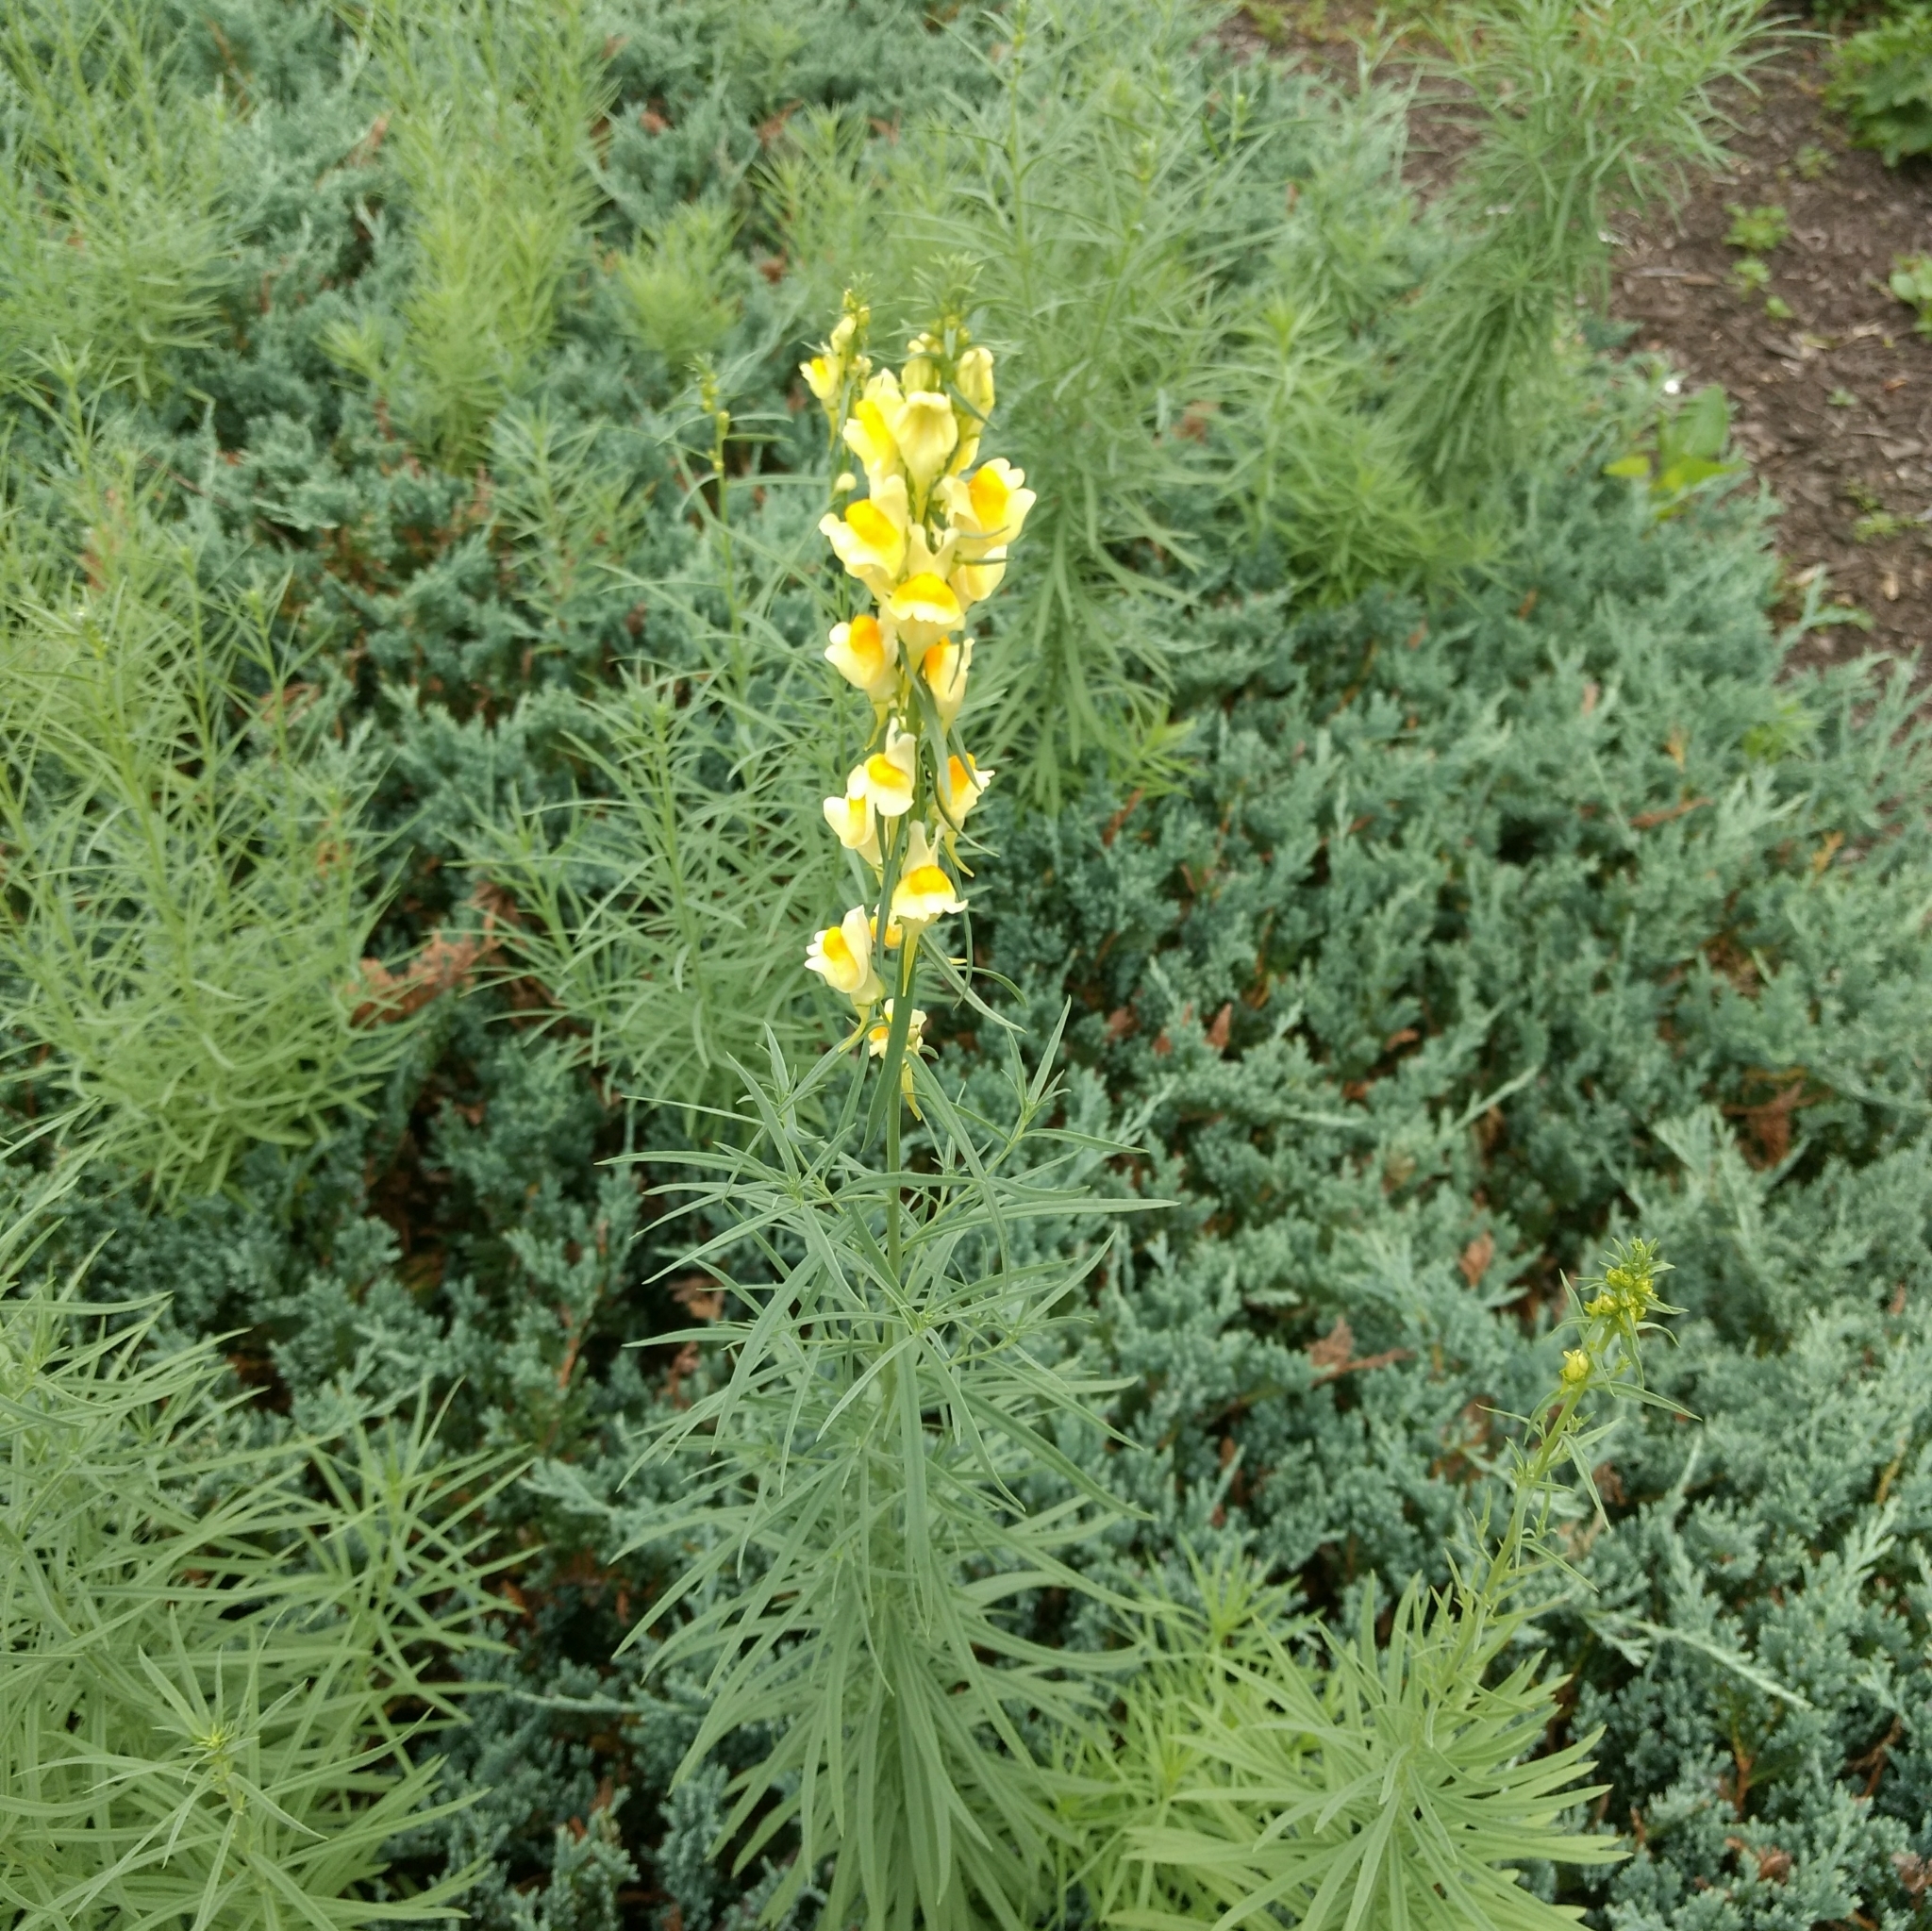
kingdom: Plantae
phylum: Tracheophyta
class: Magnoliopsida
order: Lamiales
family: Plantaginaceae
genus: Linaria
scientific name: Linaria vulgaris
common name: Butter and eggs
